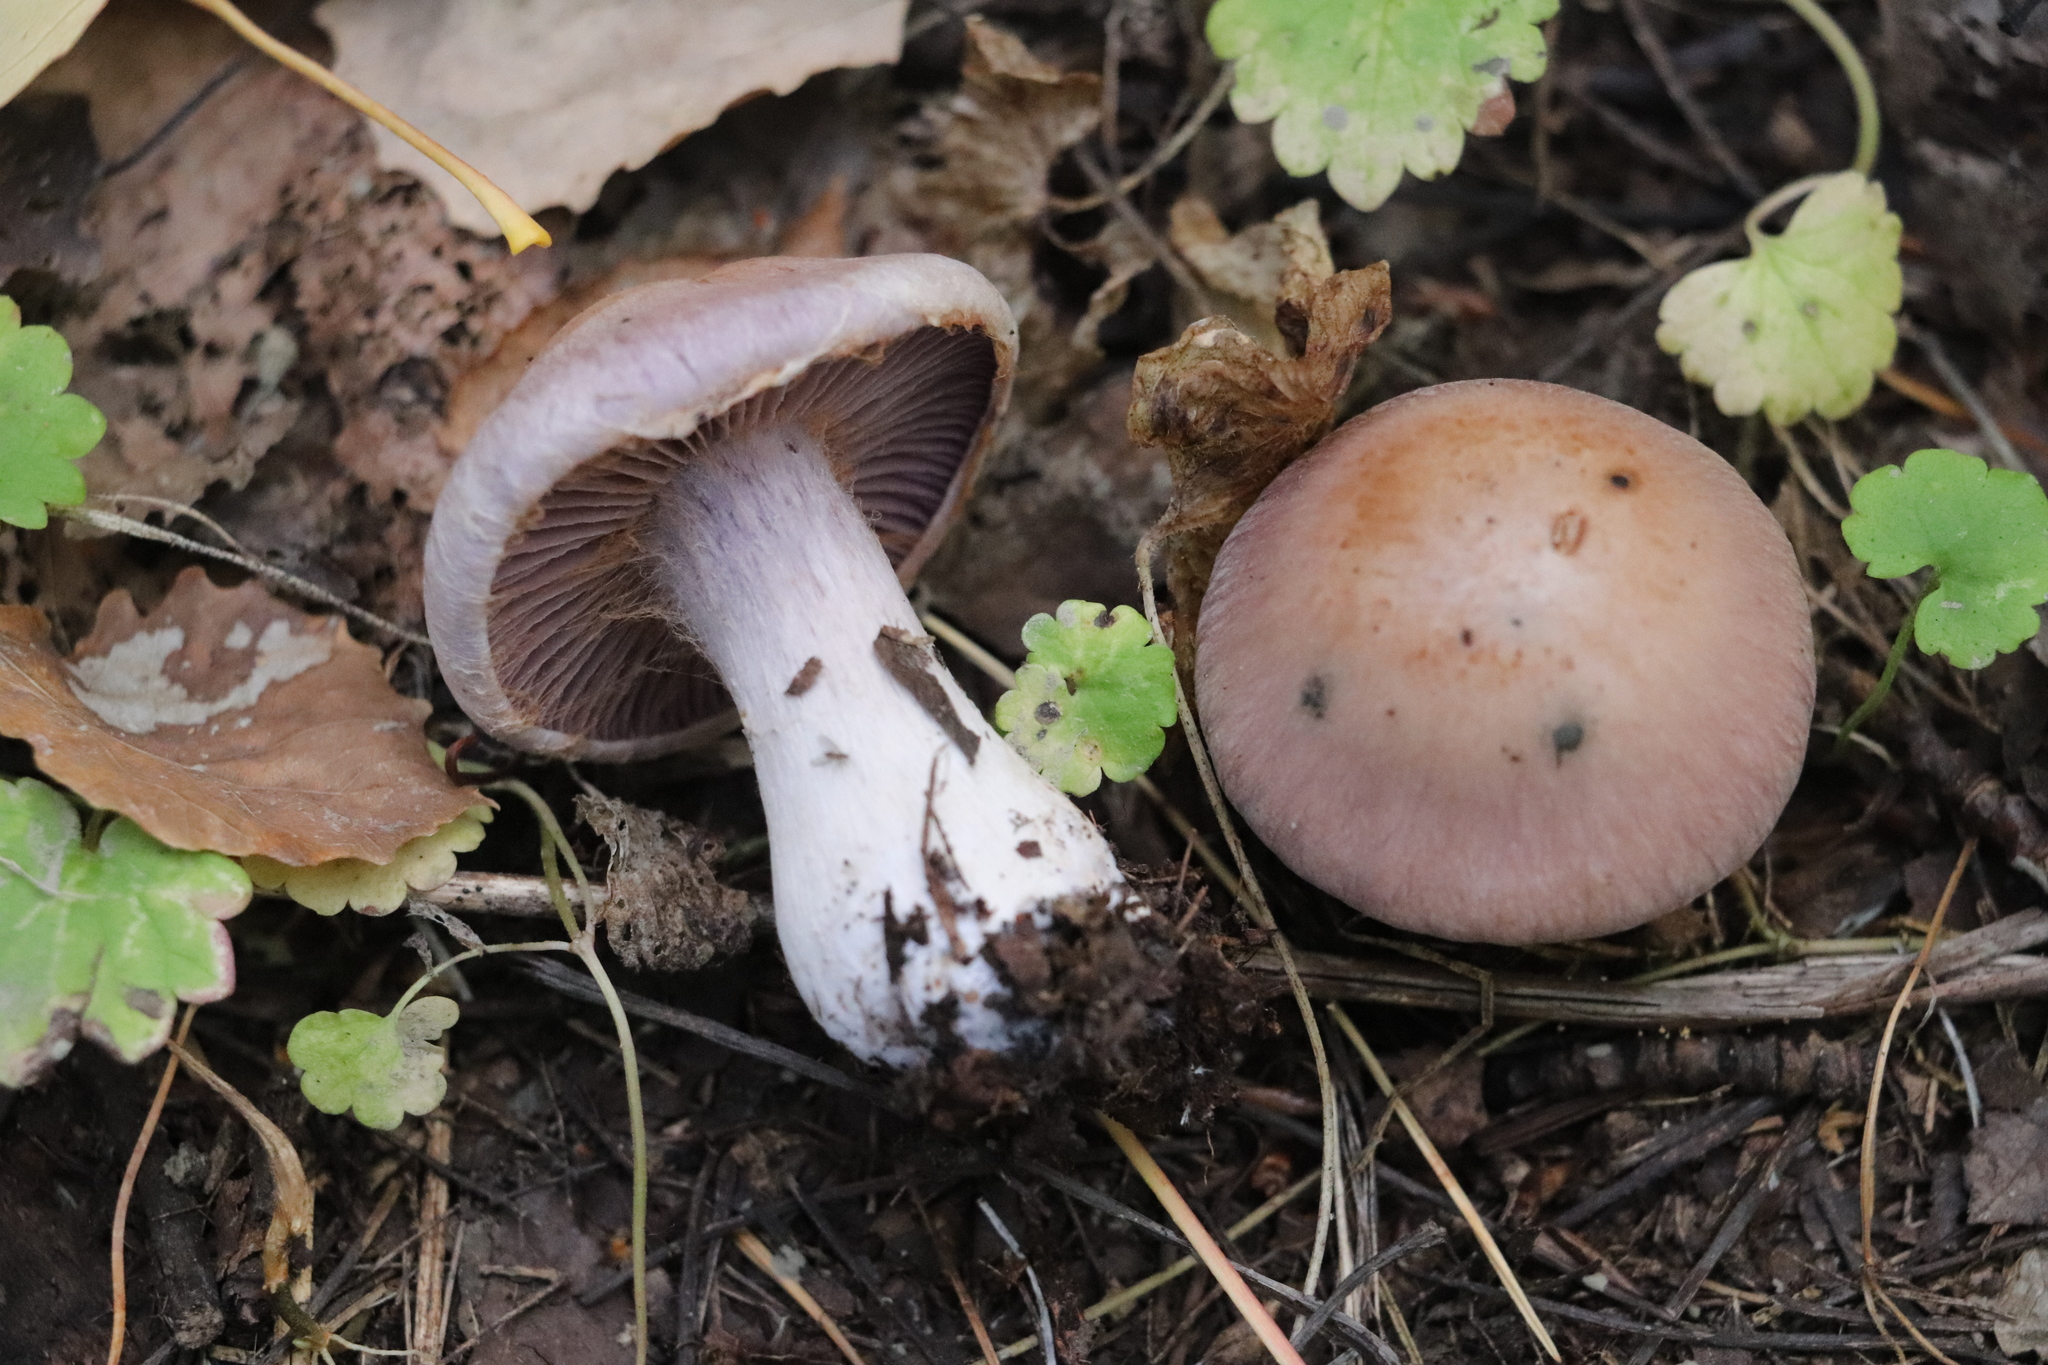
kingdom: Fungi
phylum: Basidiomycota
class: Agaricomycetes
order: Agaricales
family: Cortinariaceae
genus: Thaxterogaster
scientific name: Thaxterogaster porphyropus
